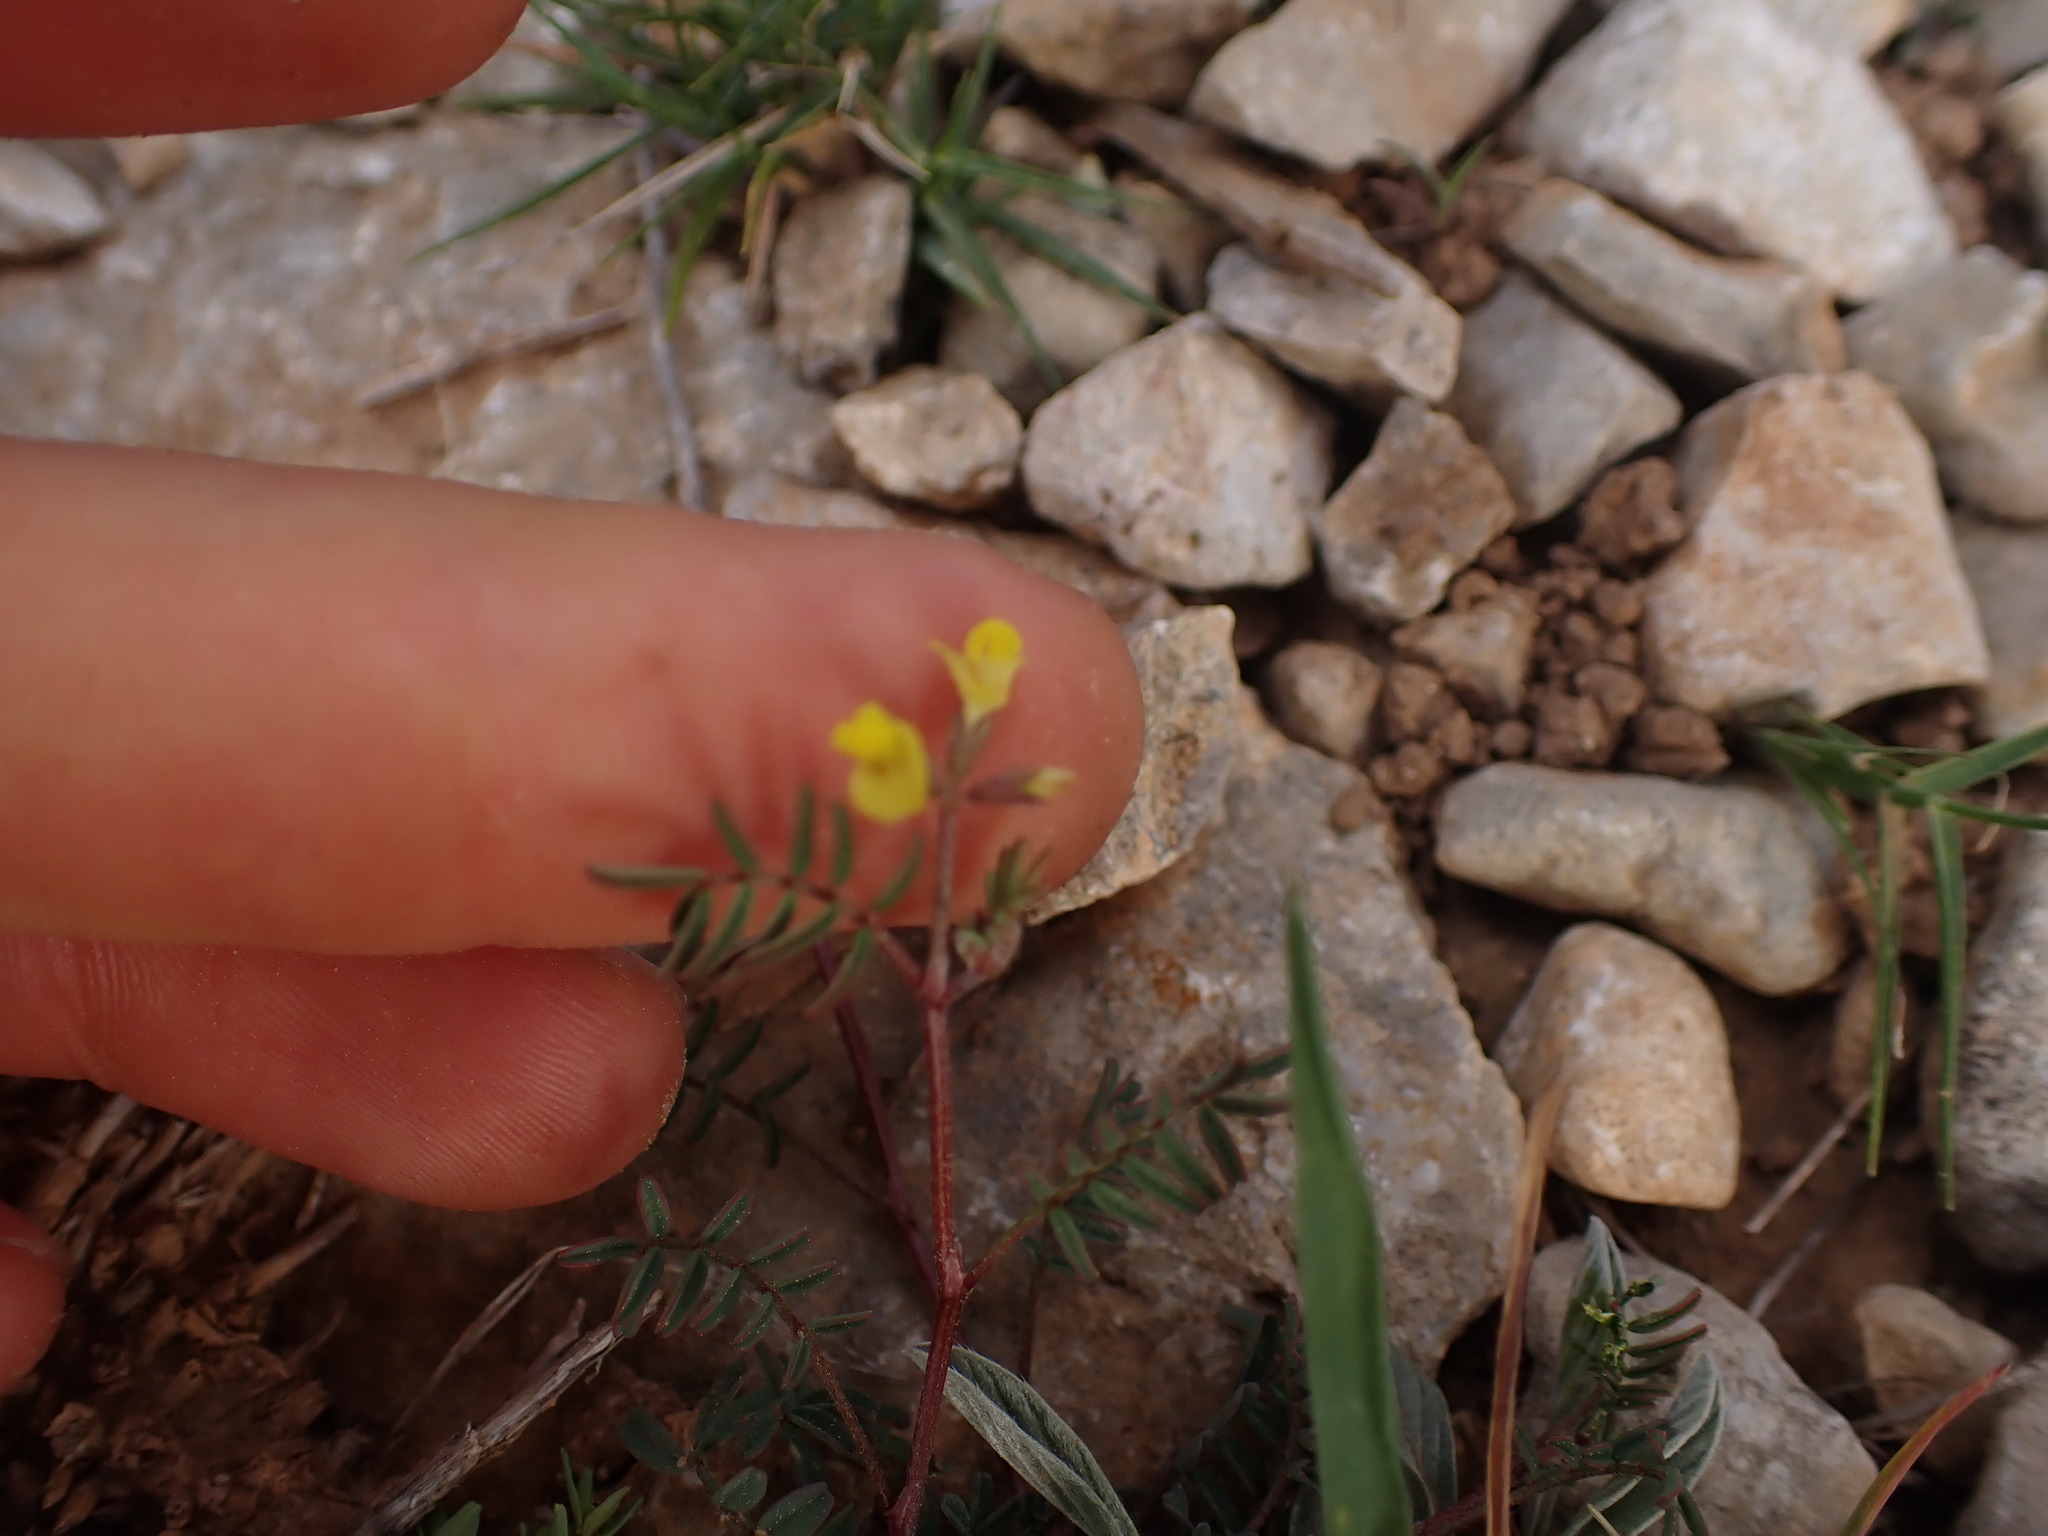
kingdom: Plantae
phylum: Tracheophyta
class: Magnoliopsida
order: Fabales
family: Fabaceae
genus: Hippocrepis
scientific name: Hippocrepis ciliata
